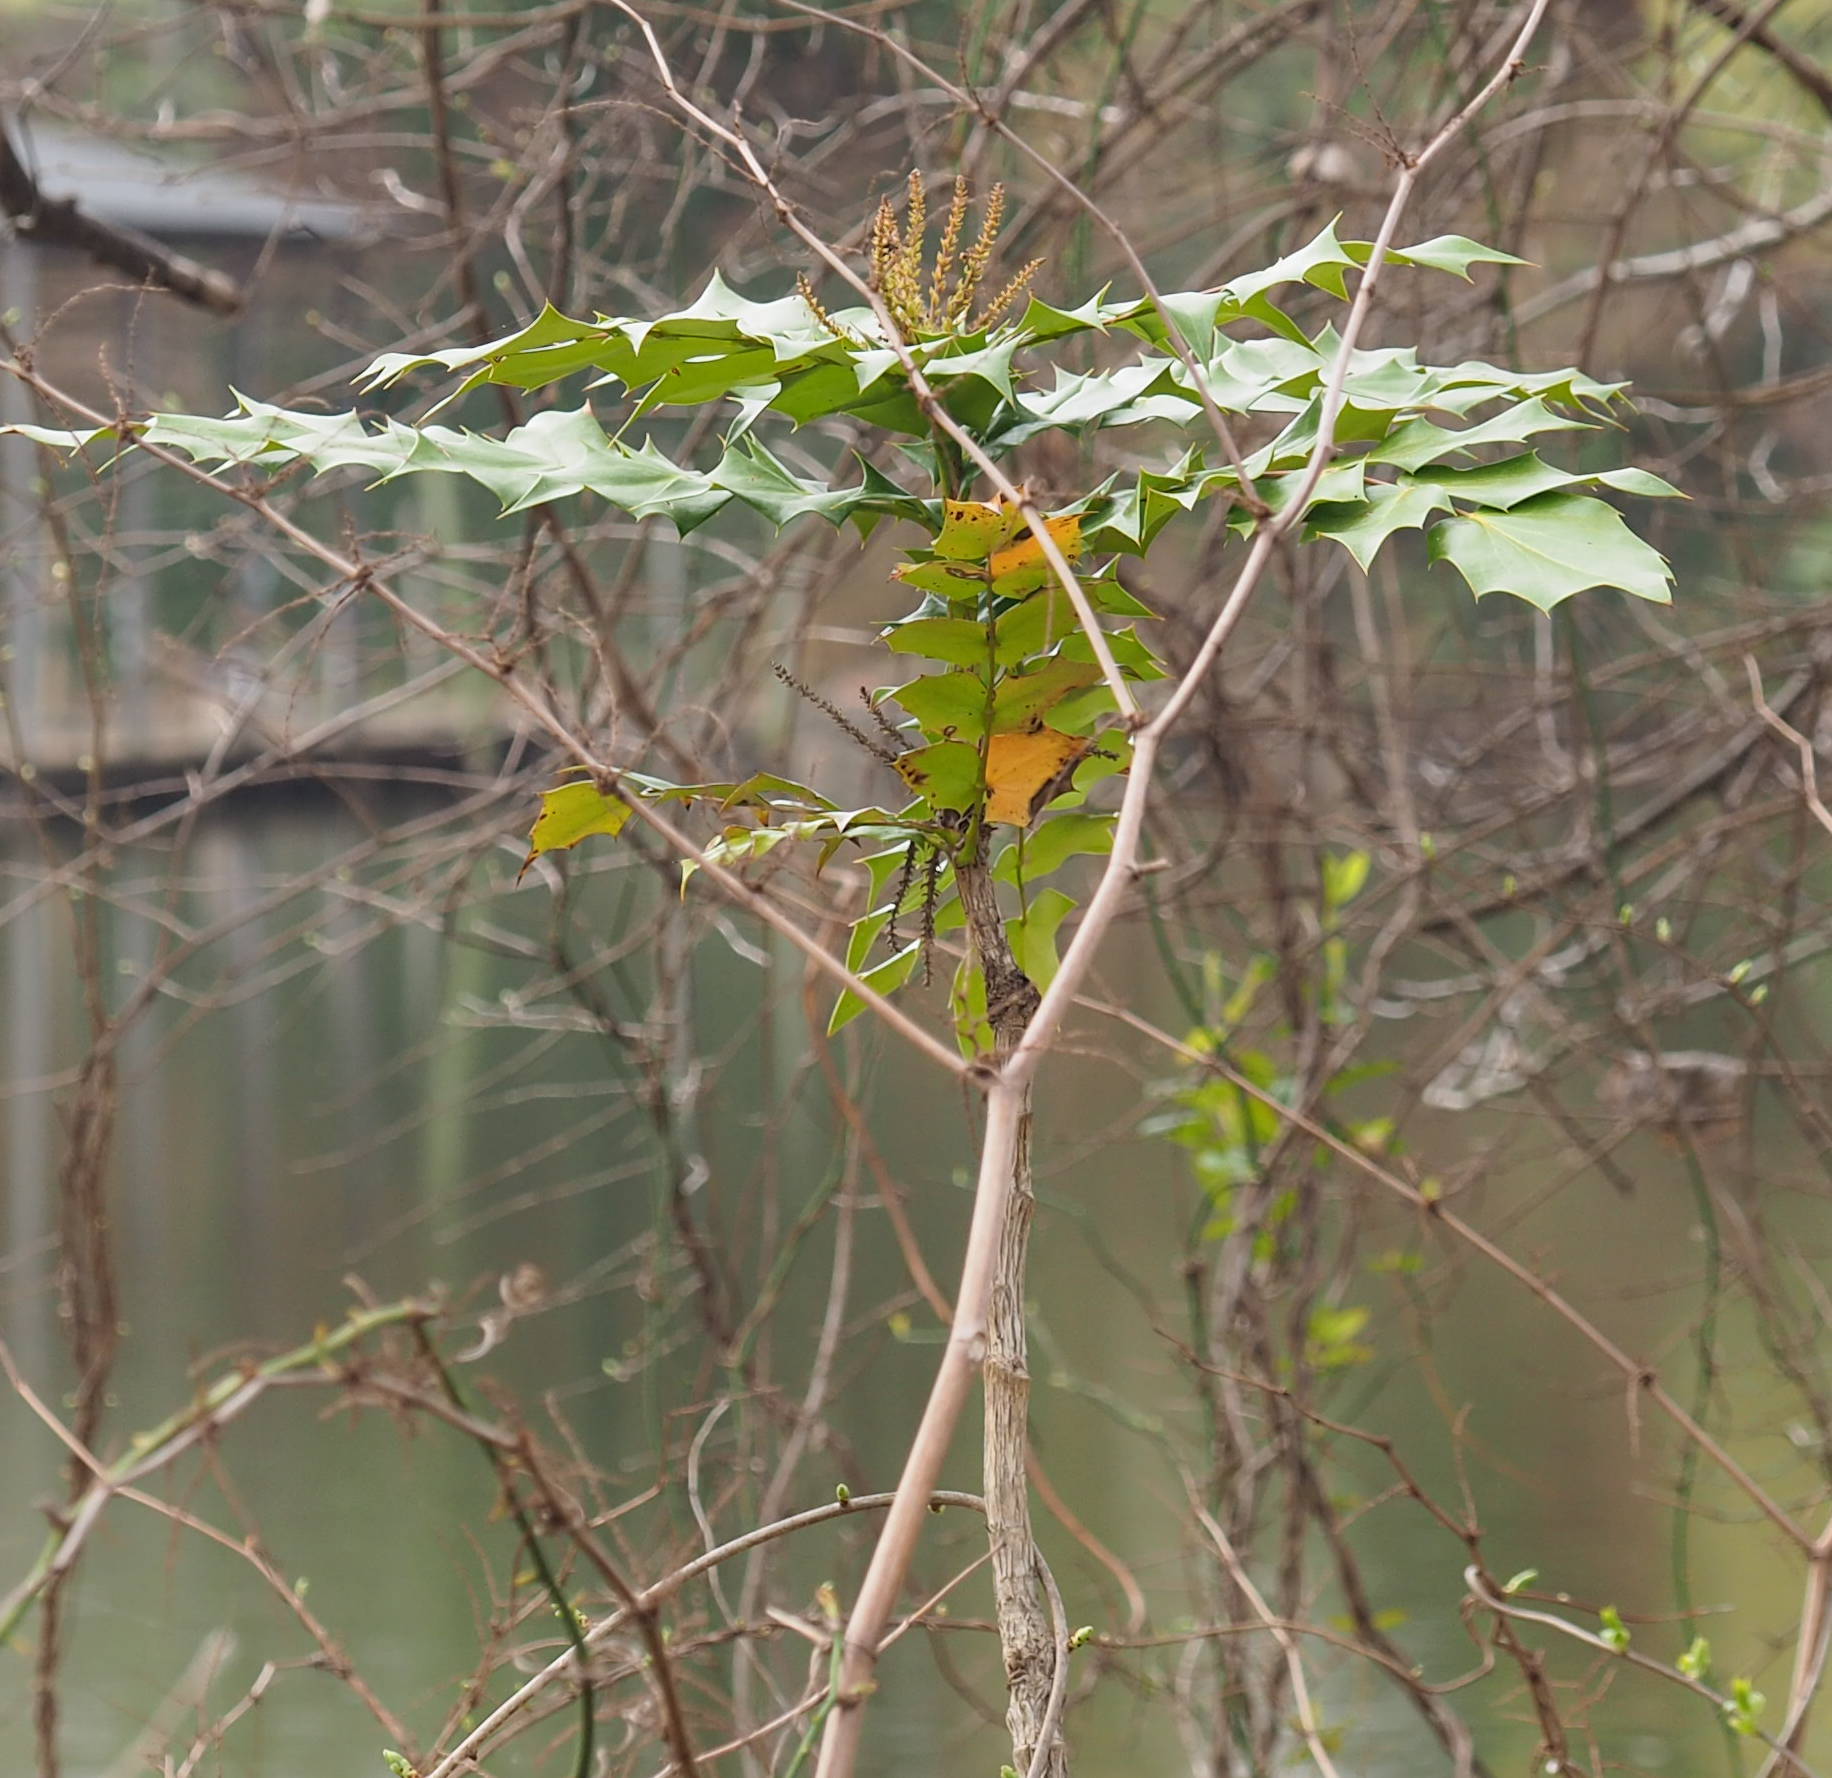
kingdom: Plantae
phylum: Tracheophyta
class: Magnoliopsida
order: Ranunculales
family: Berberidaceae
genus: Mahonia
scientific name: Mahonia bealei
